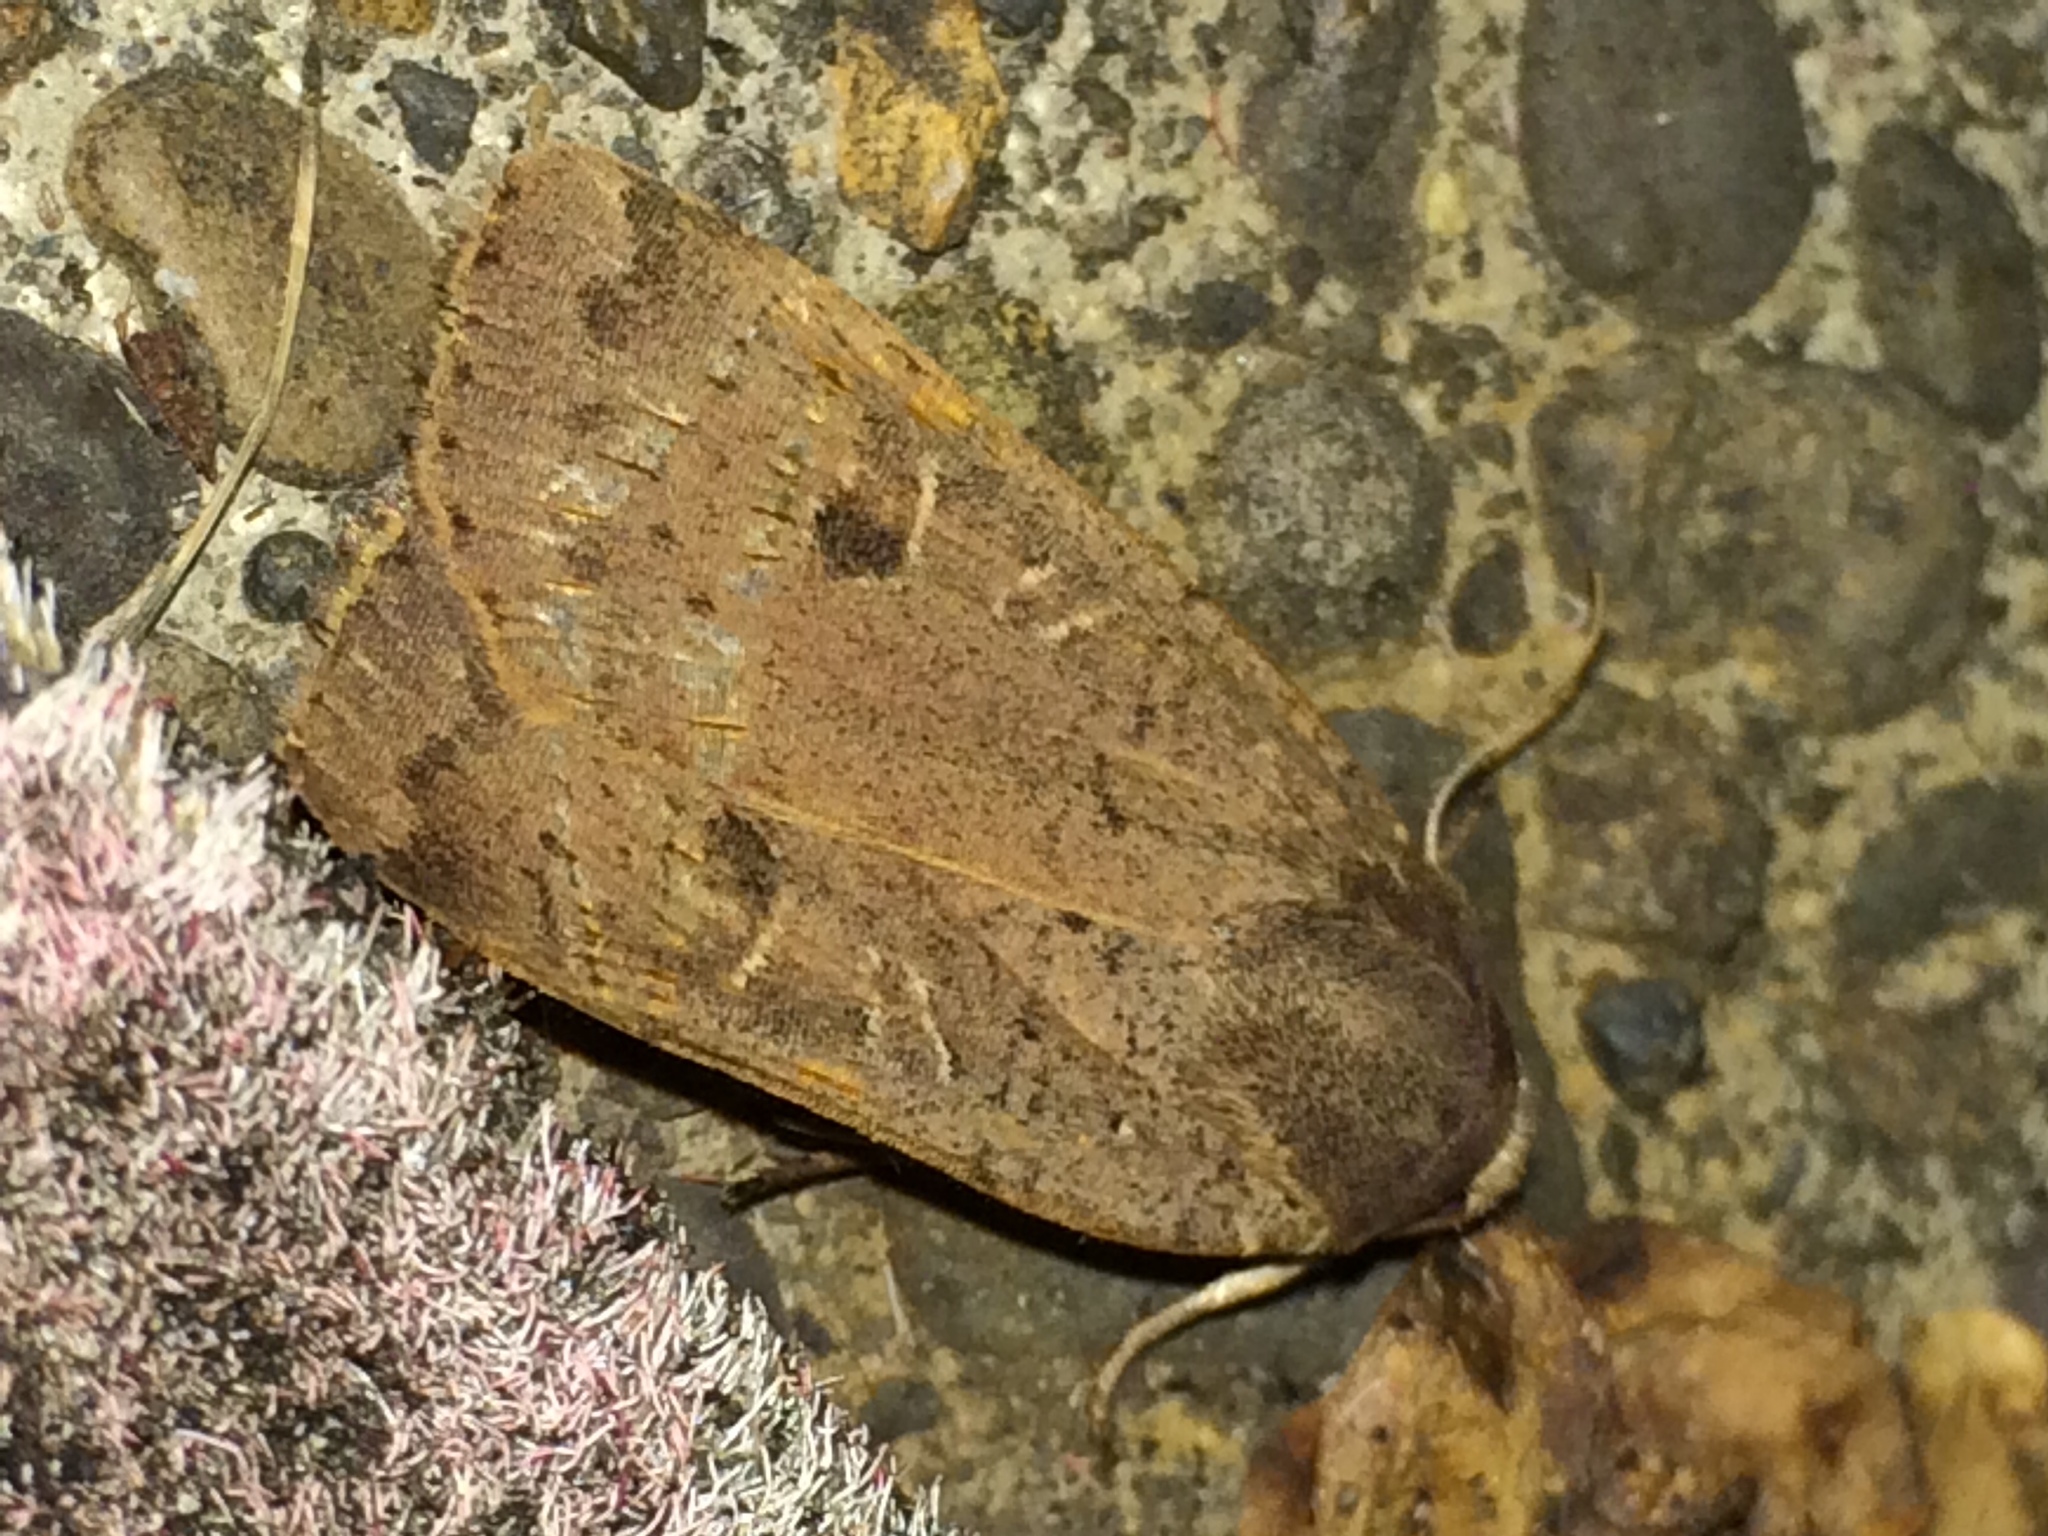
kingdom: Animalia
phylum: Arthropoda
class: Insecta
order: Lepidoptera
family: Noctuidae
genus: Noctua
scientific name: Noctua comes
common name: Lesser yellow underwing
